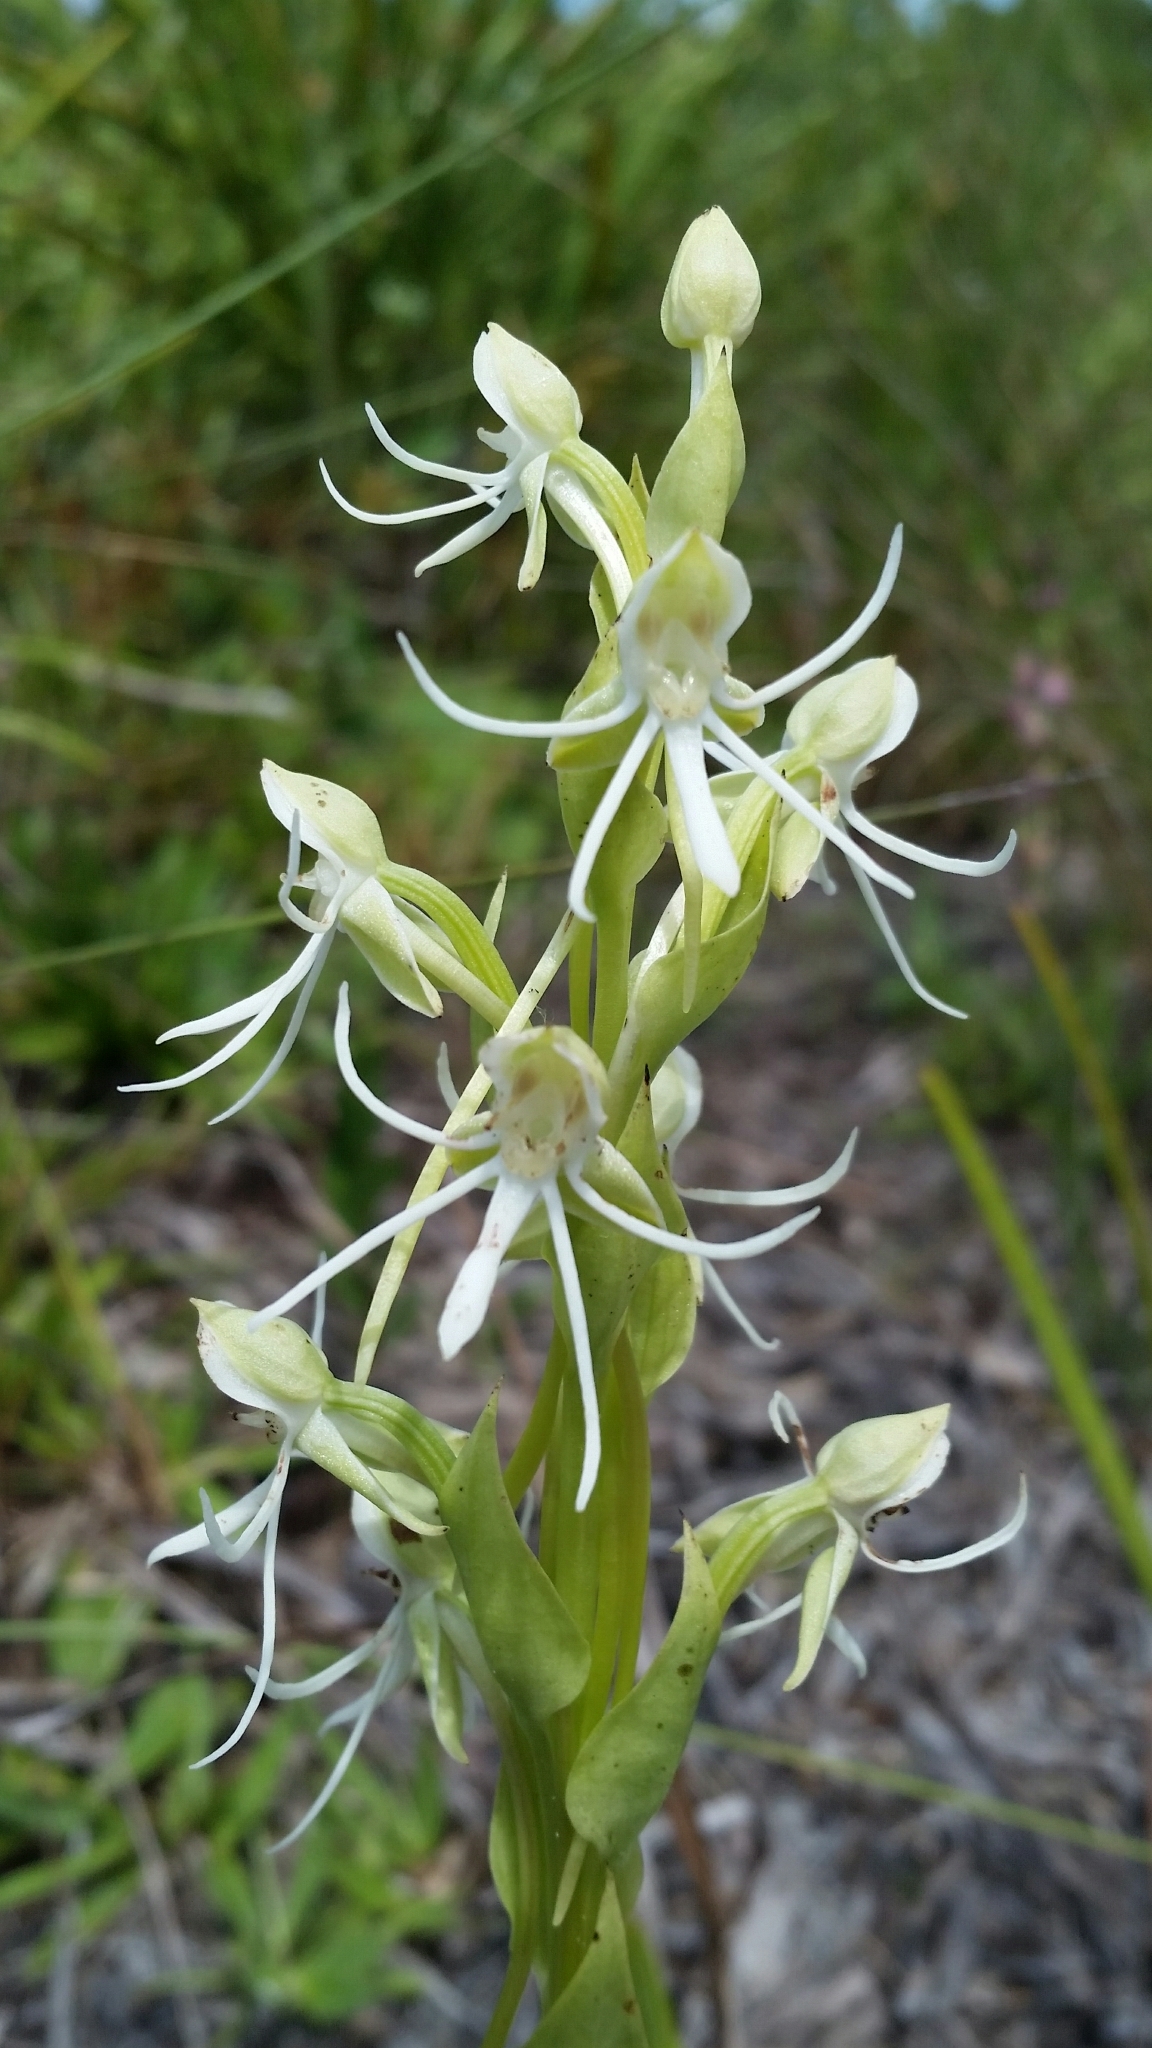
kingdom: Plantae
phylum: Tracheophyta
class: Liliopsida
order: Asparagales
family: Orchidaceae
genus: Habenaria
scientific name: Habenaria quinqueseta
